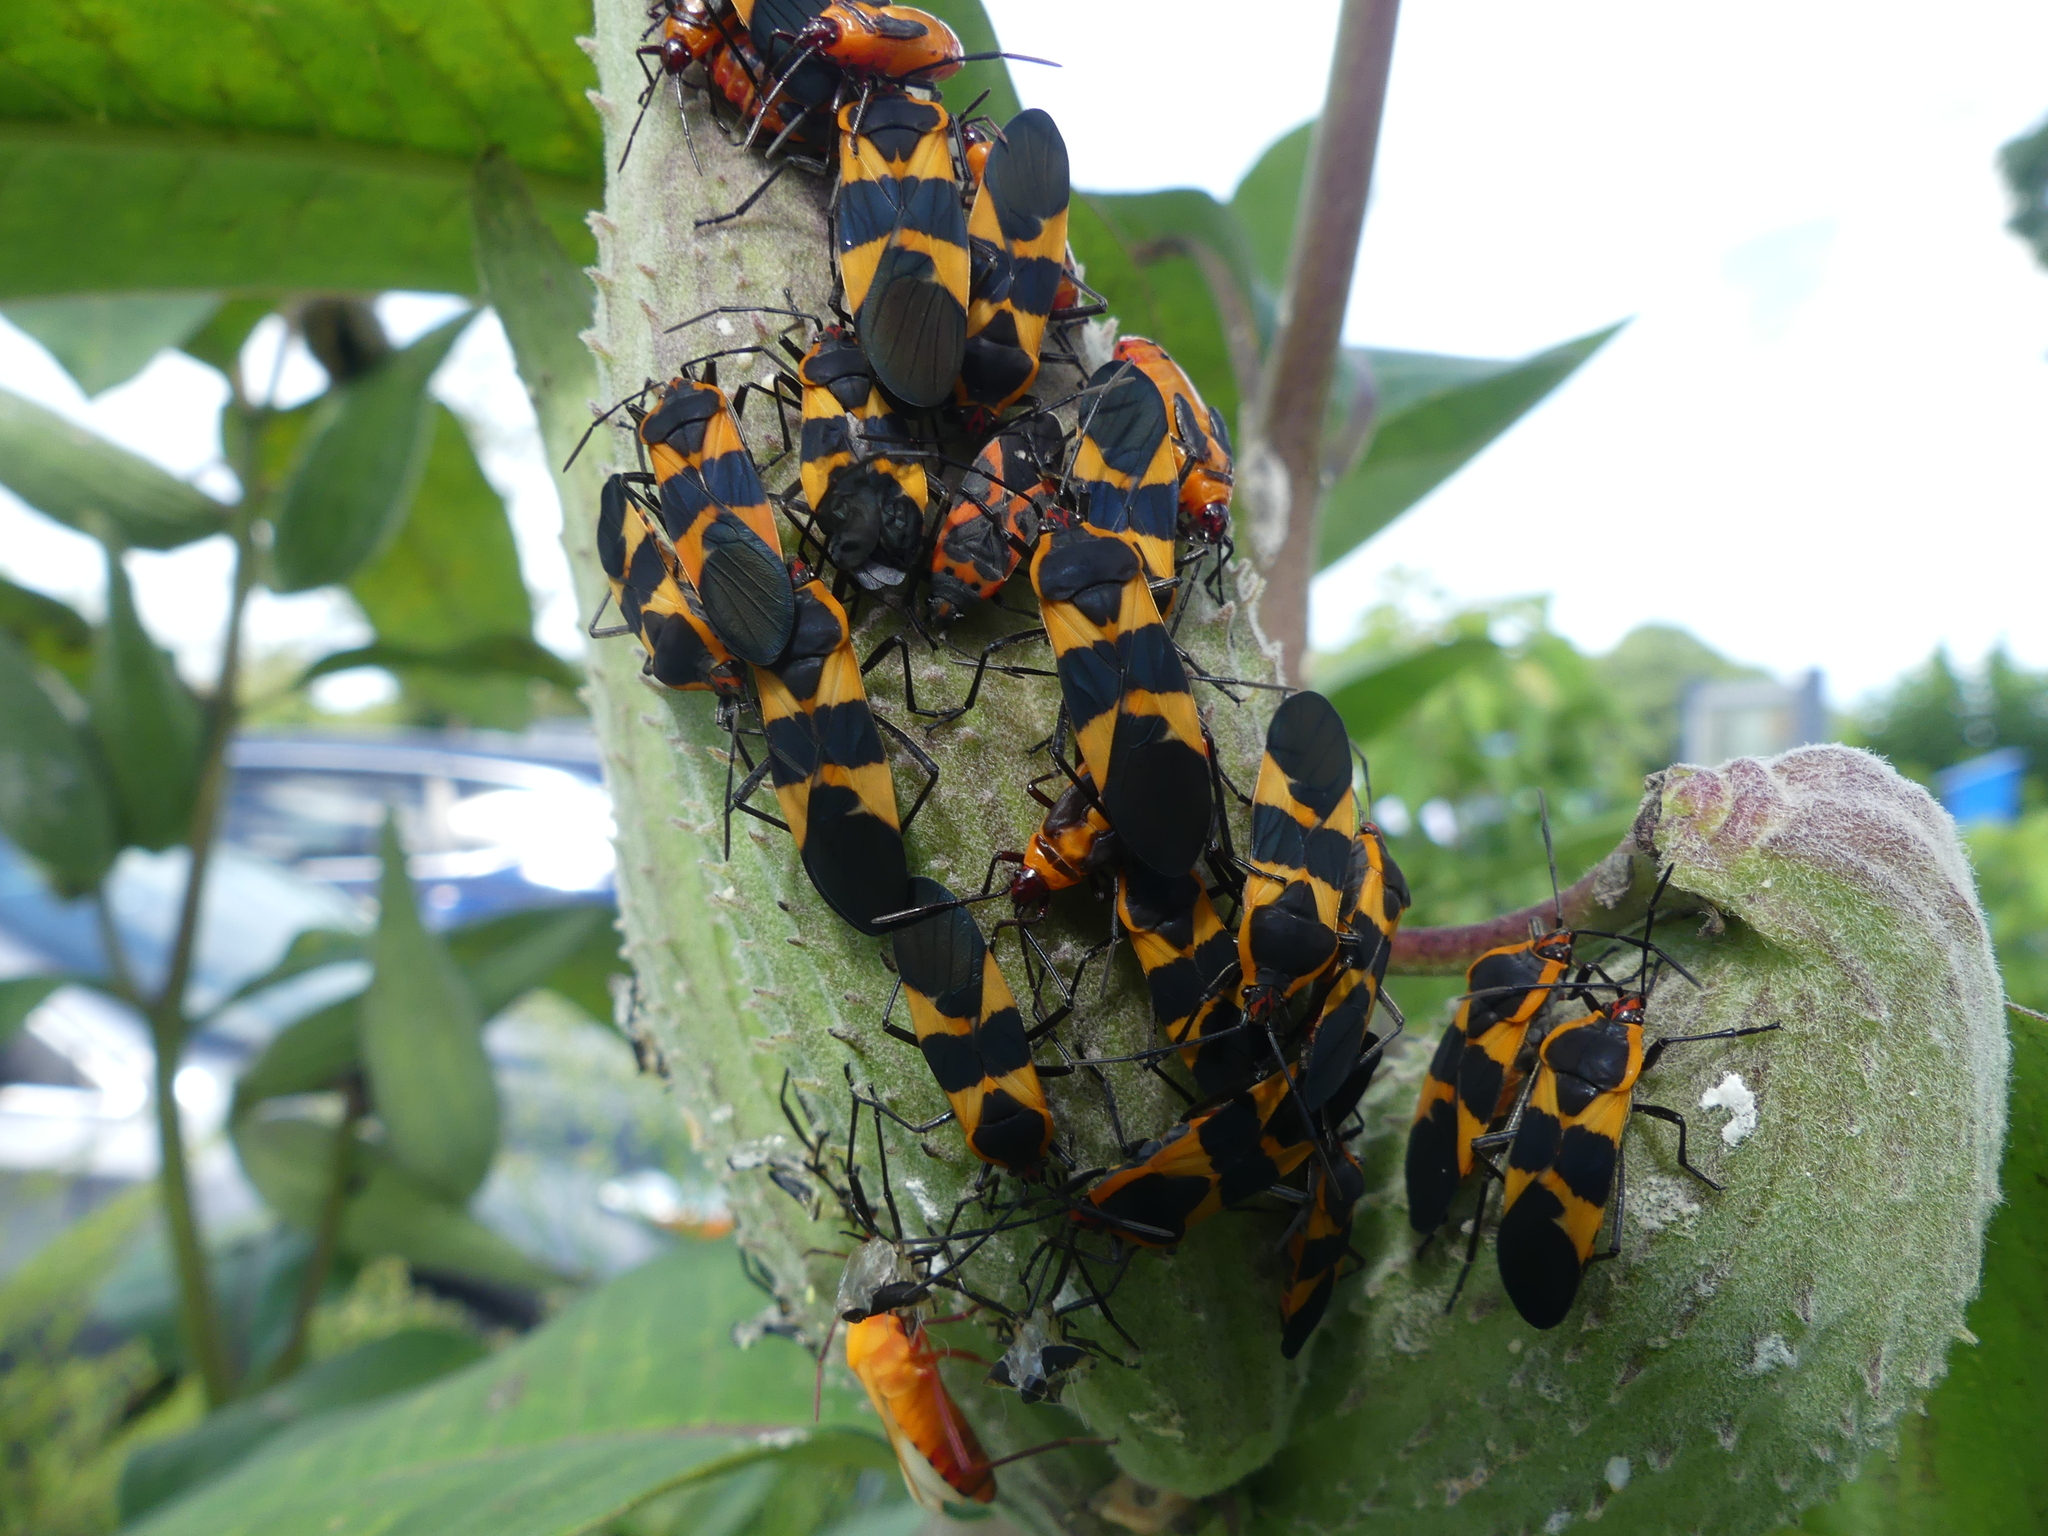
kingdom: Animalia
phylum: Arthropoda
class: Insecta
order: Hemiptera
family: Lygaeidae
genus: Lygaeus
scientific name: Lygaeus kalmii
